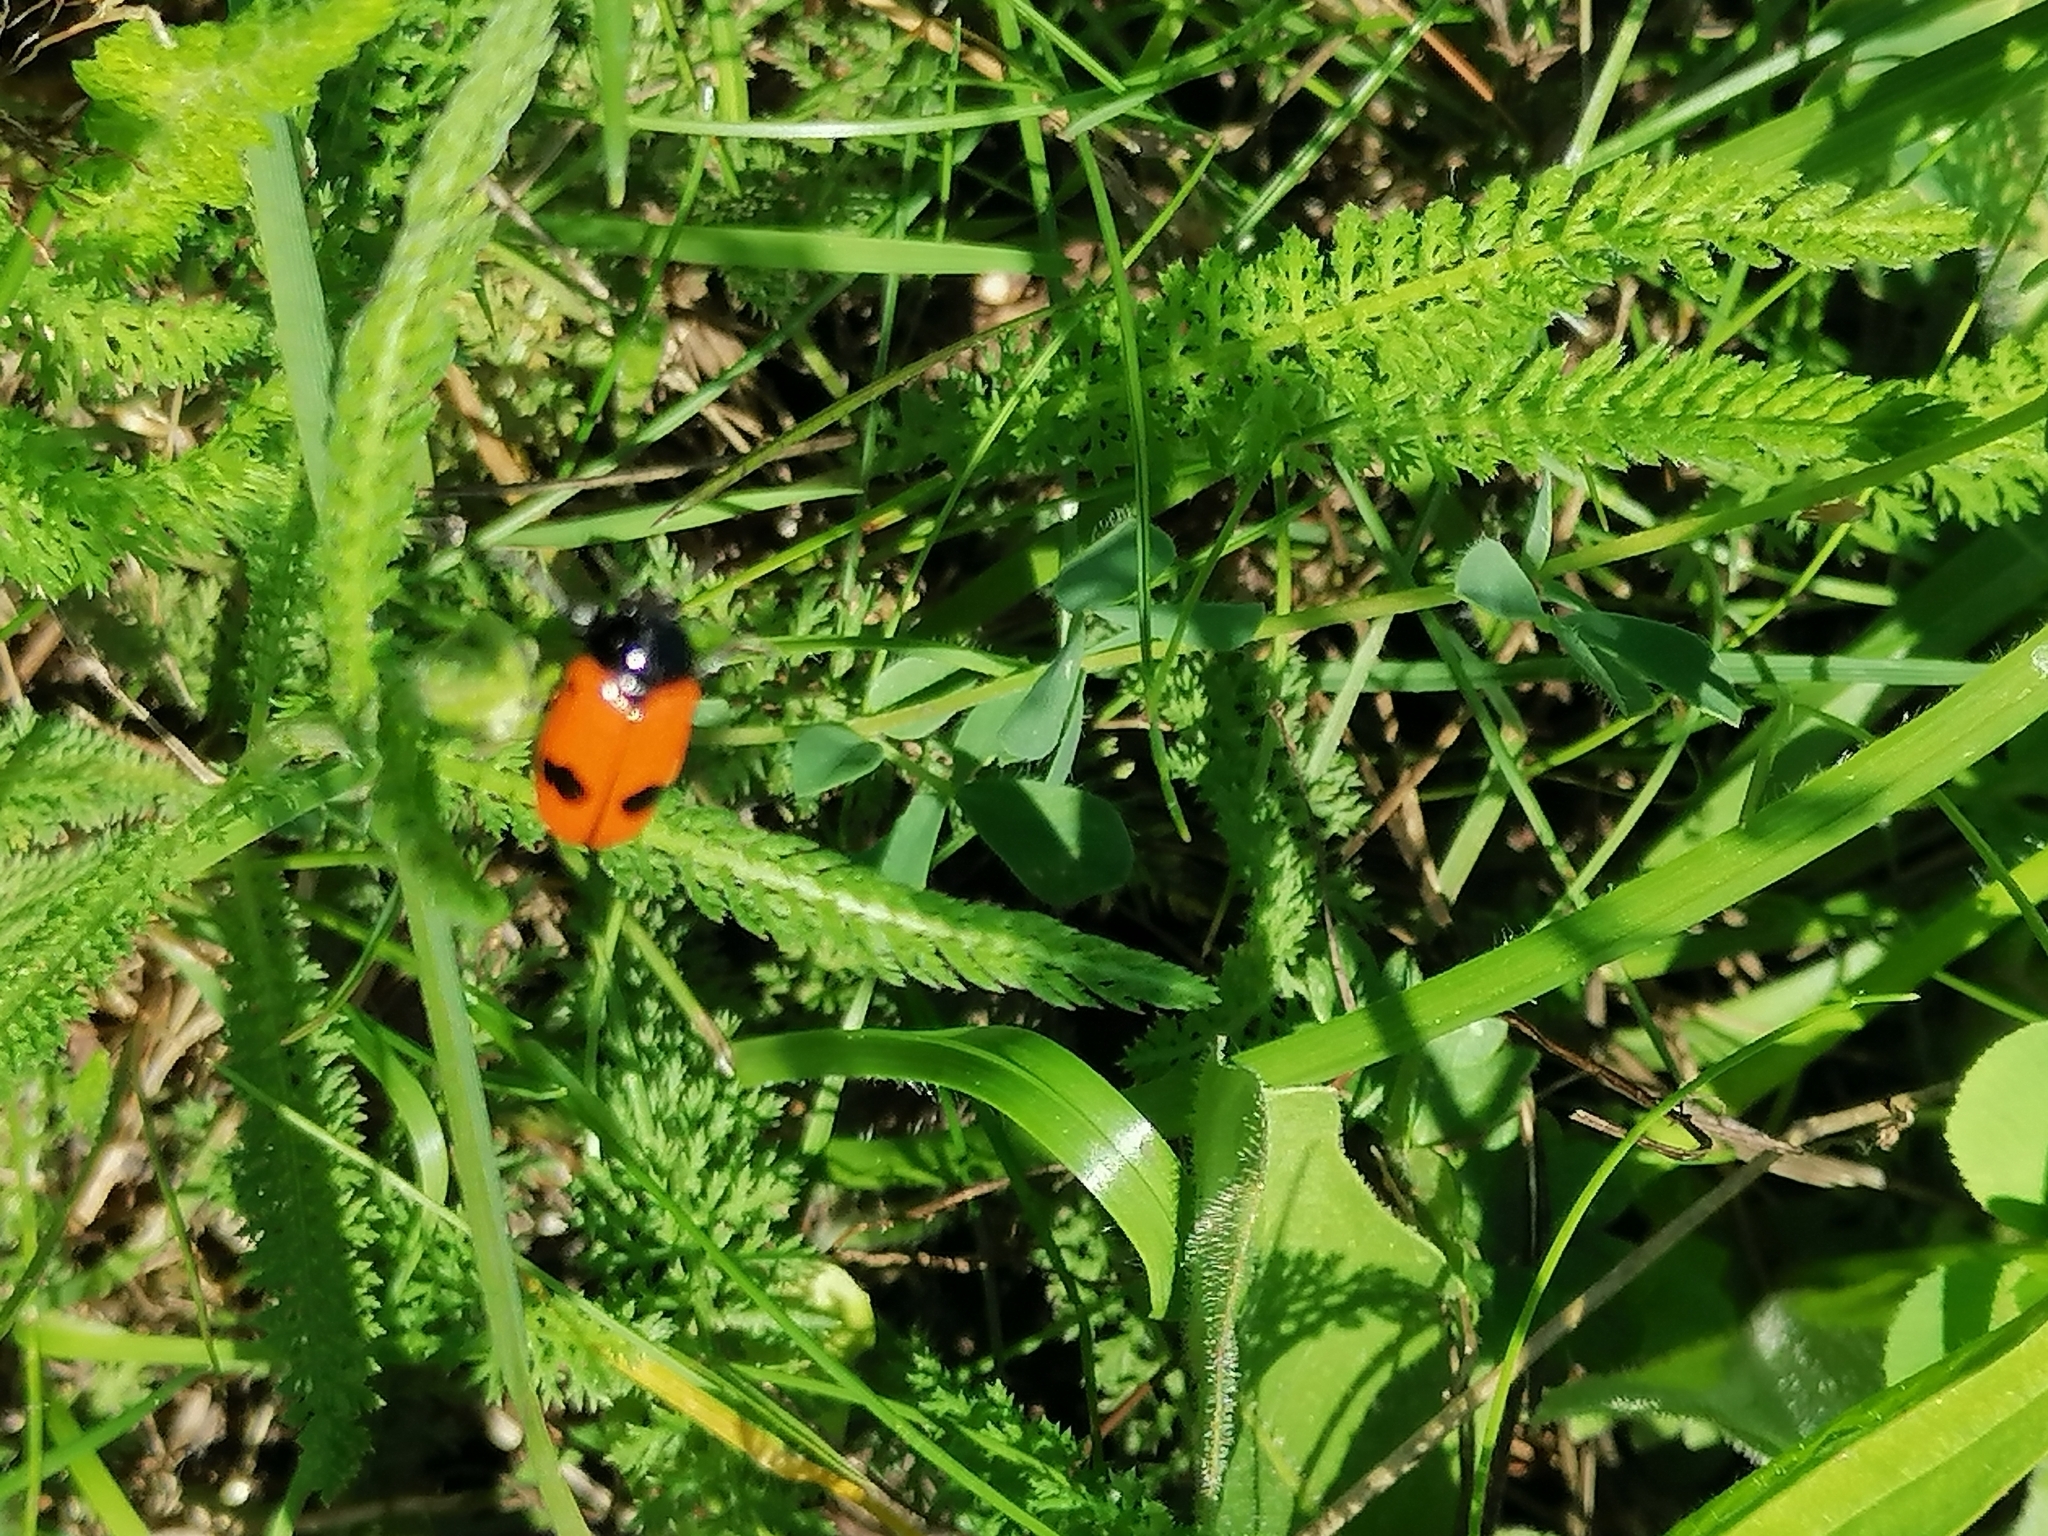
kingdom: Animalia
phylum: Arthropoda
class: Insecta
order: Coleoptera
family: Chrysomelidae
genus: Clytra
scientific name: Clytra laeviuscula
